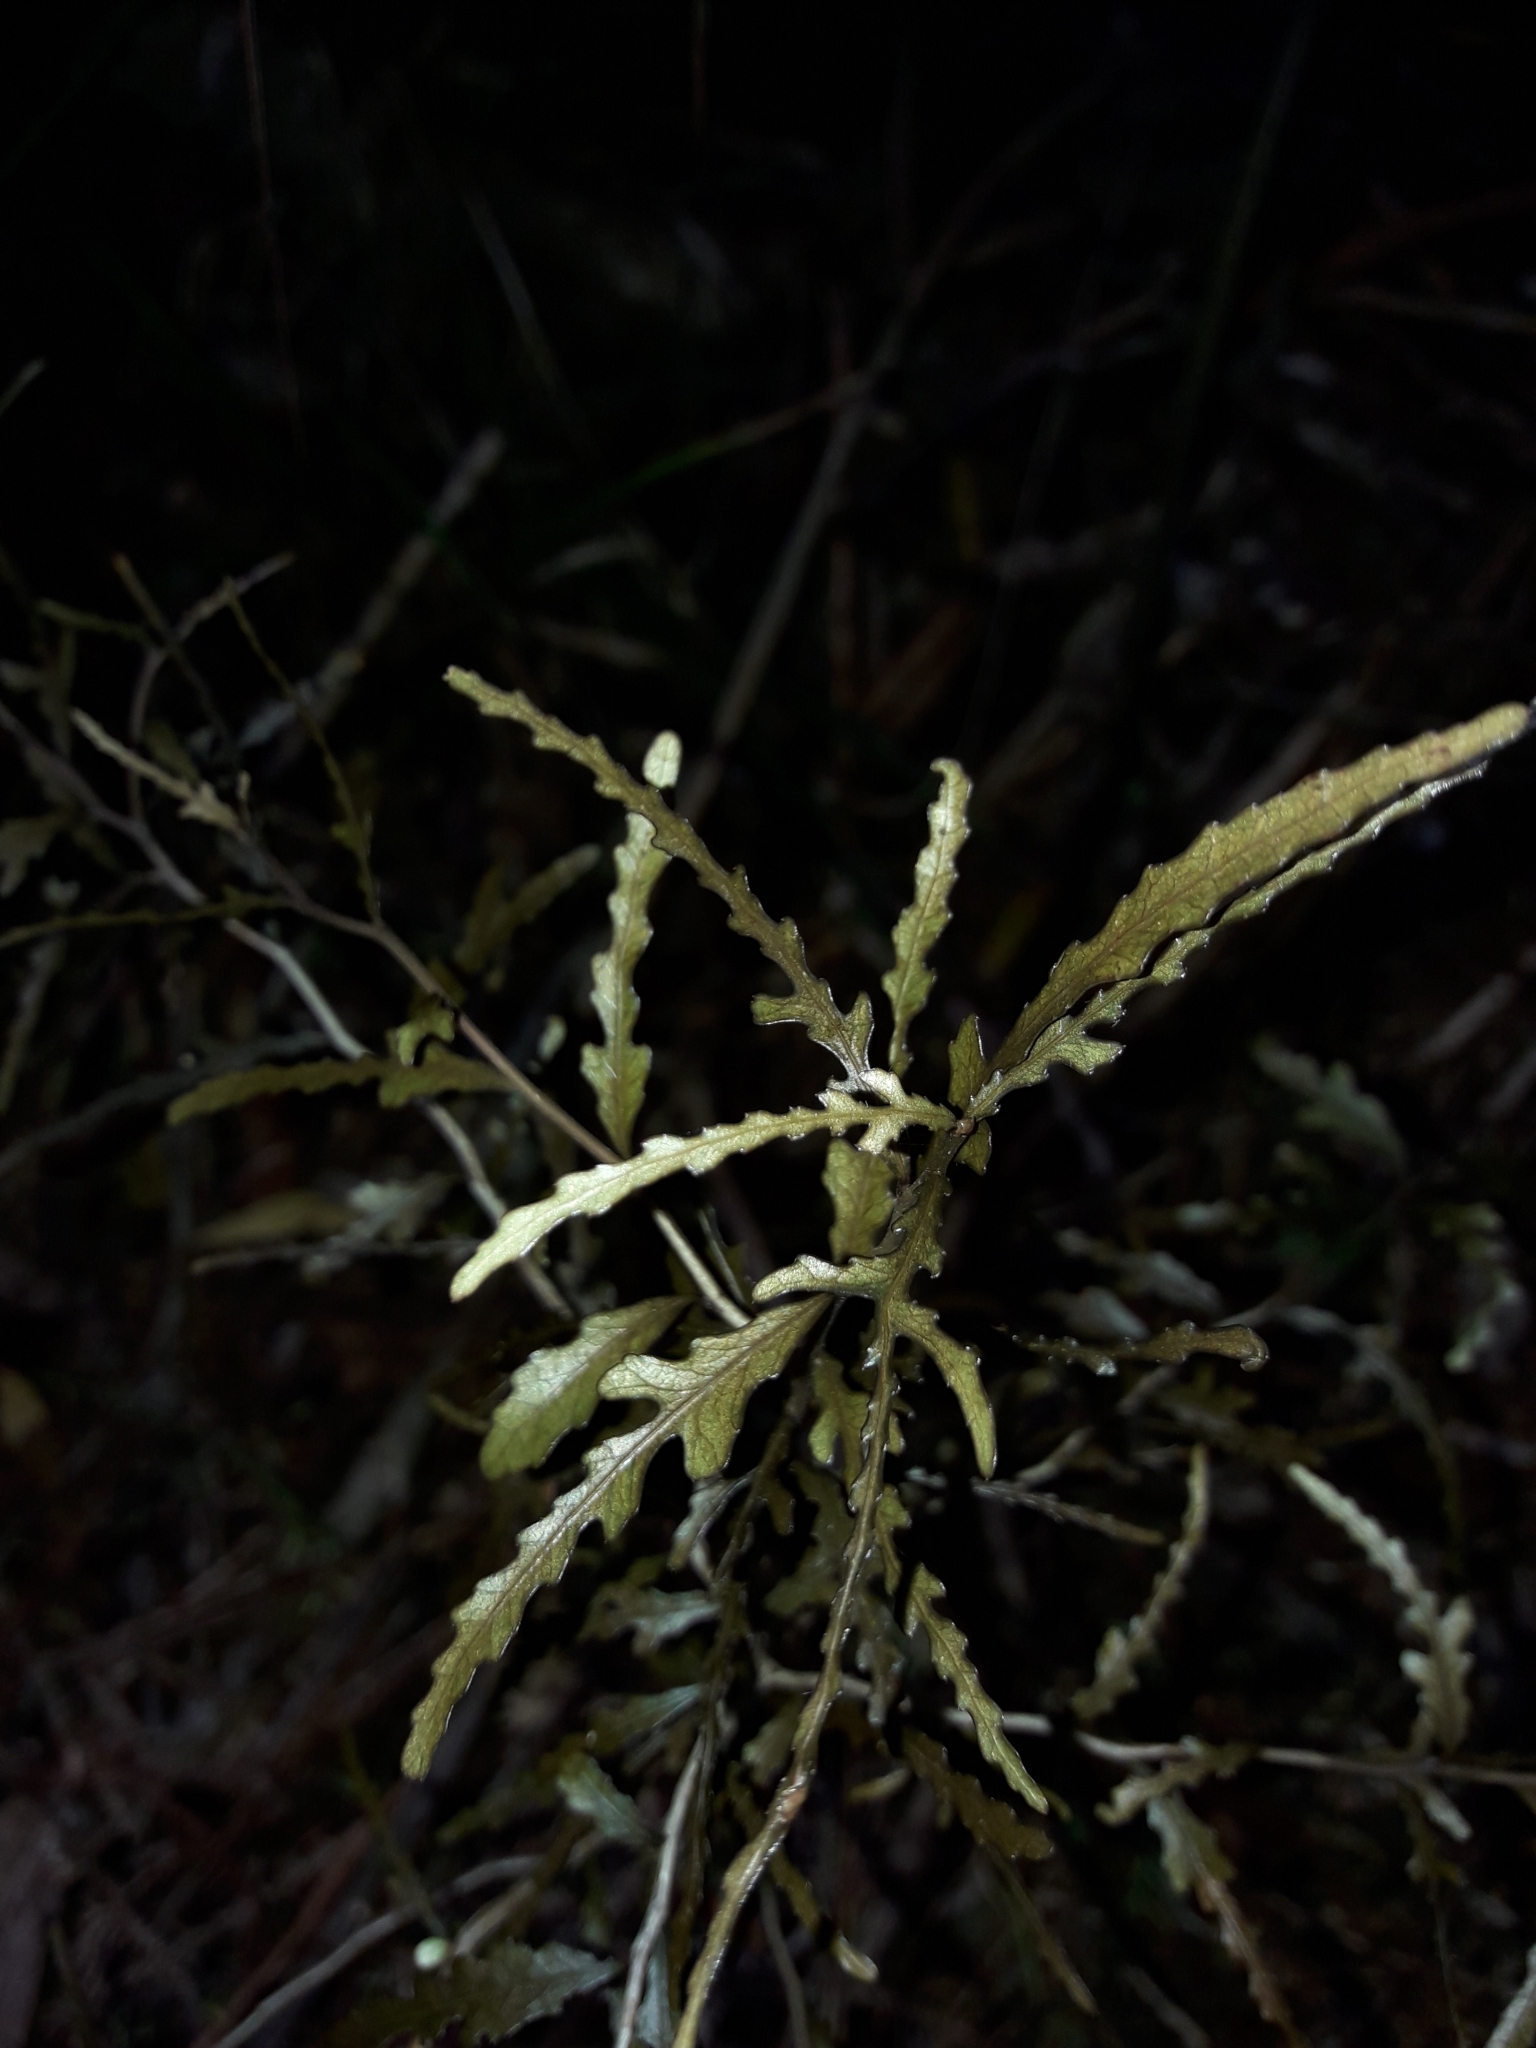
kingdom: Plantae
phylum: Tracheophyta
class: Magnoliopsida
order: Oxalidales
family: Elaeocarpaceae
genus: Elaeocarpus
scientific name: Elaeocarpus hookerianus
